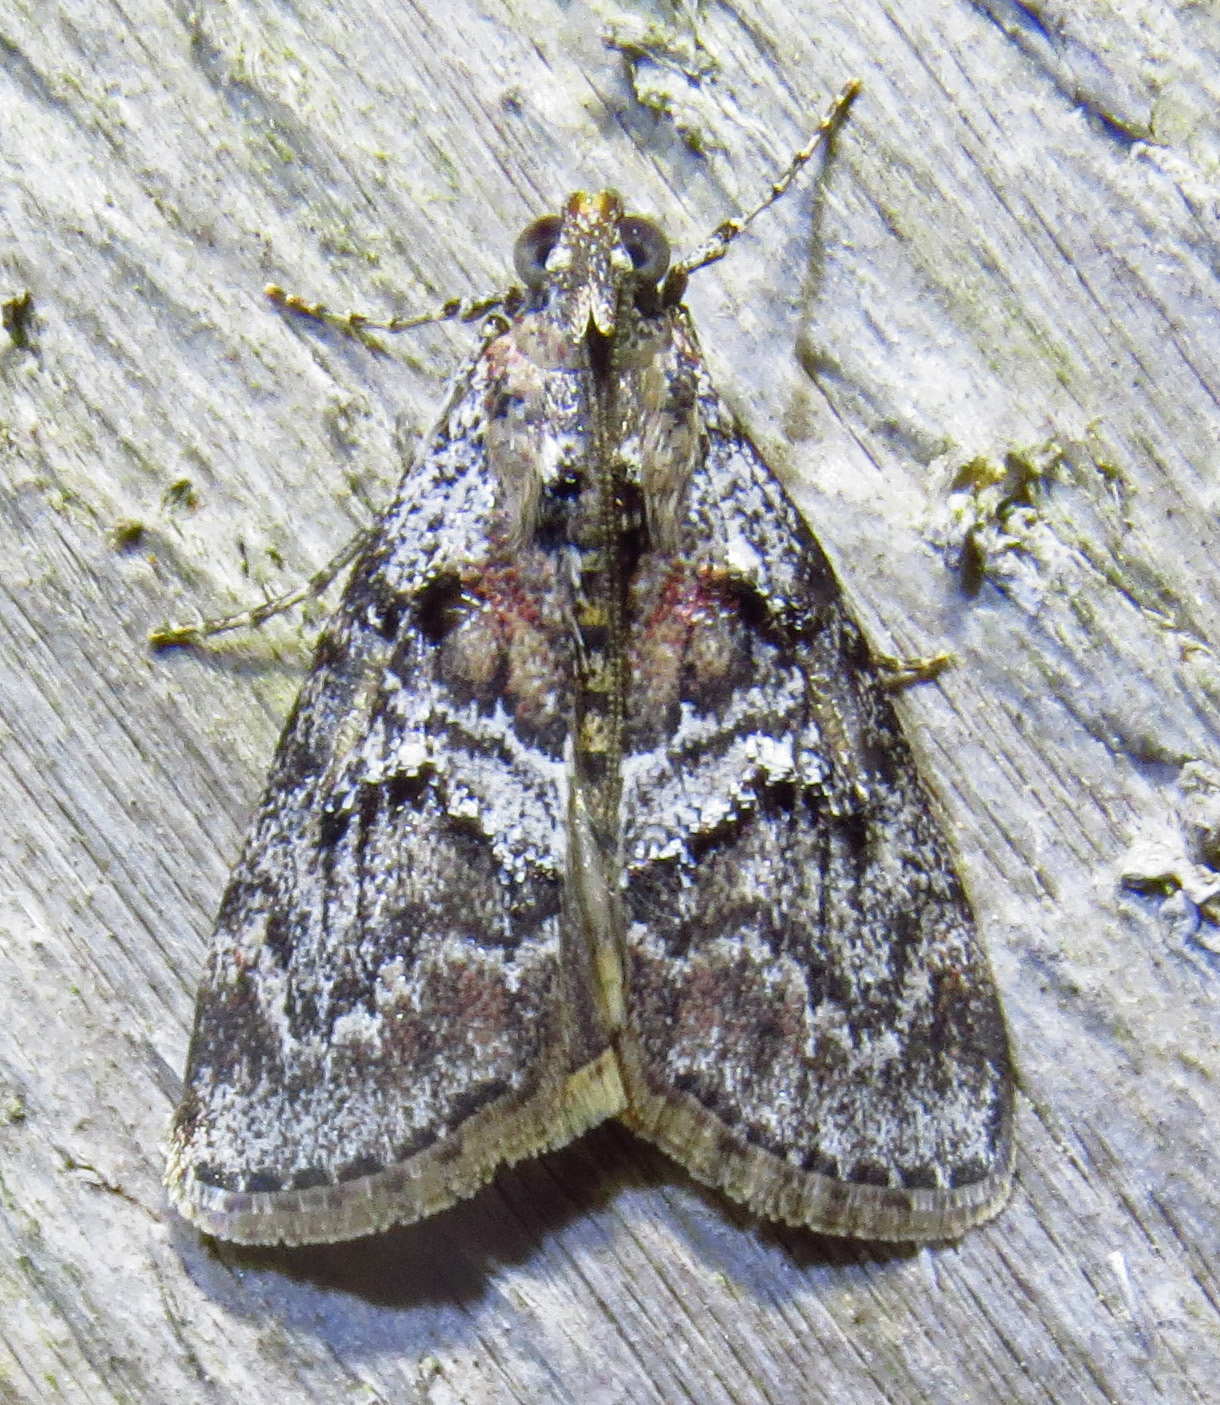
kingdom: Animalia
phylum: Arthropoda
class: Insecta
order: Lepidoptera
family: Pyralidae
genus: Pococera
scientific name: Pococera asperatella
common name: Maple webworm moth
